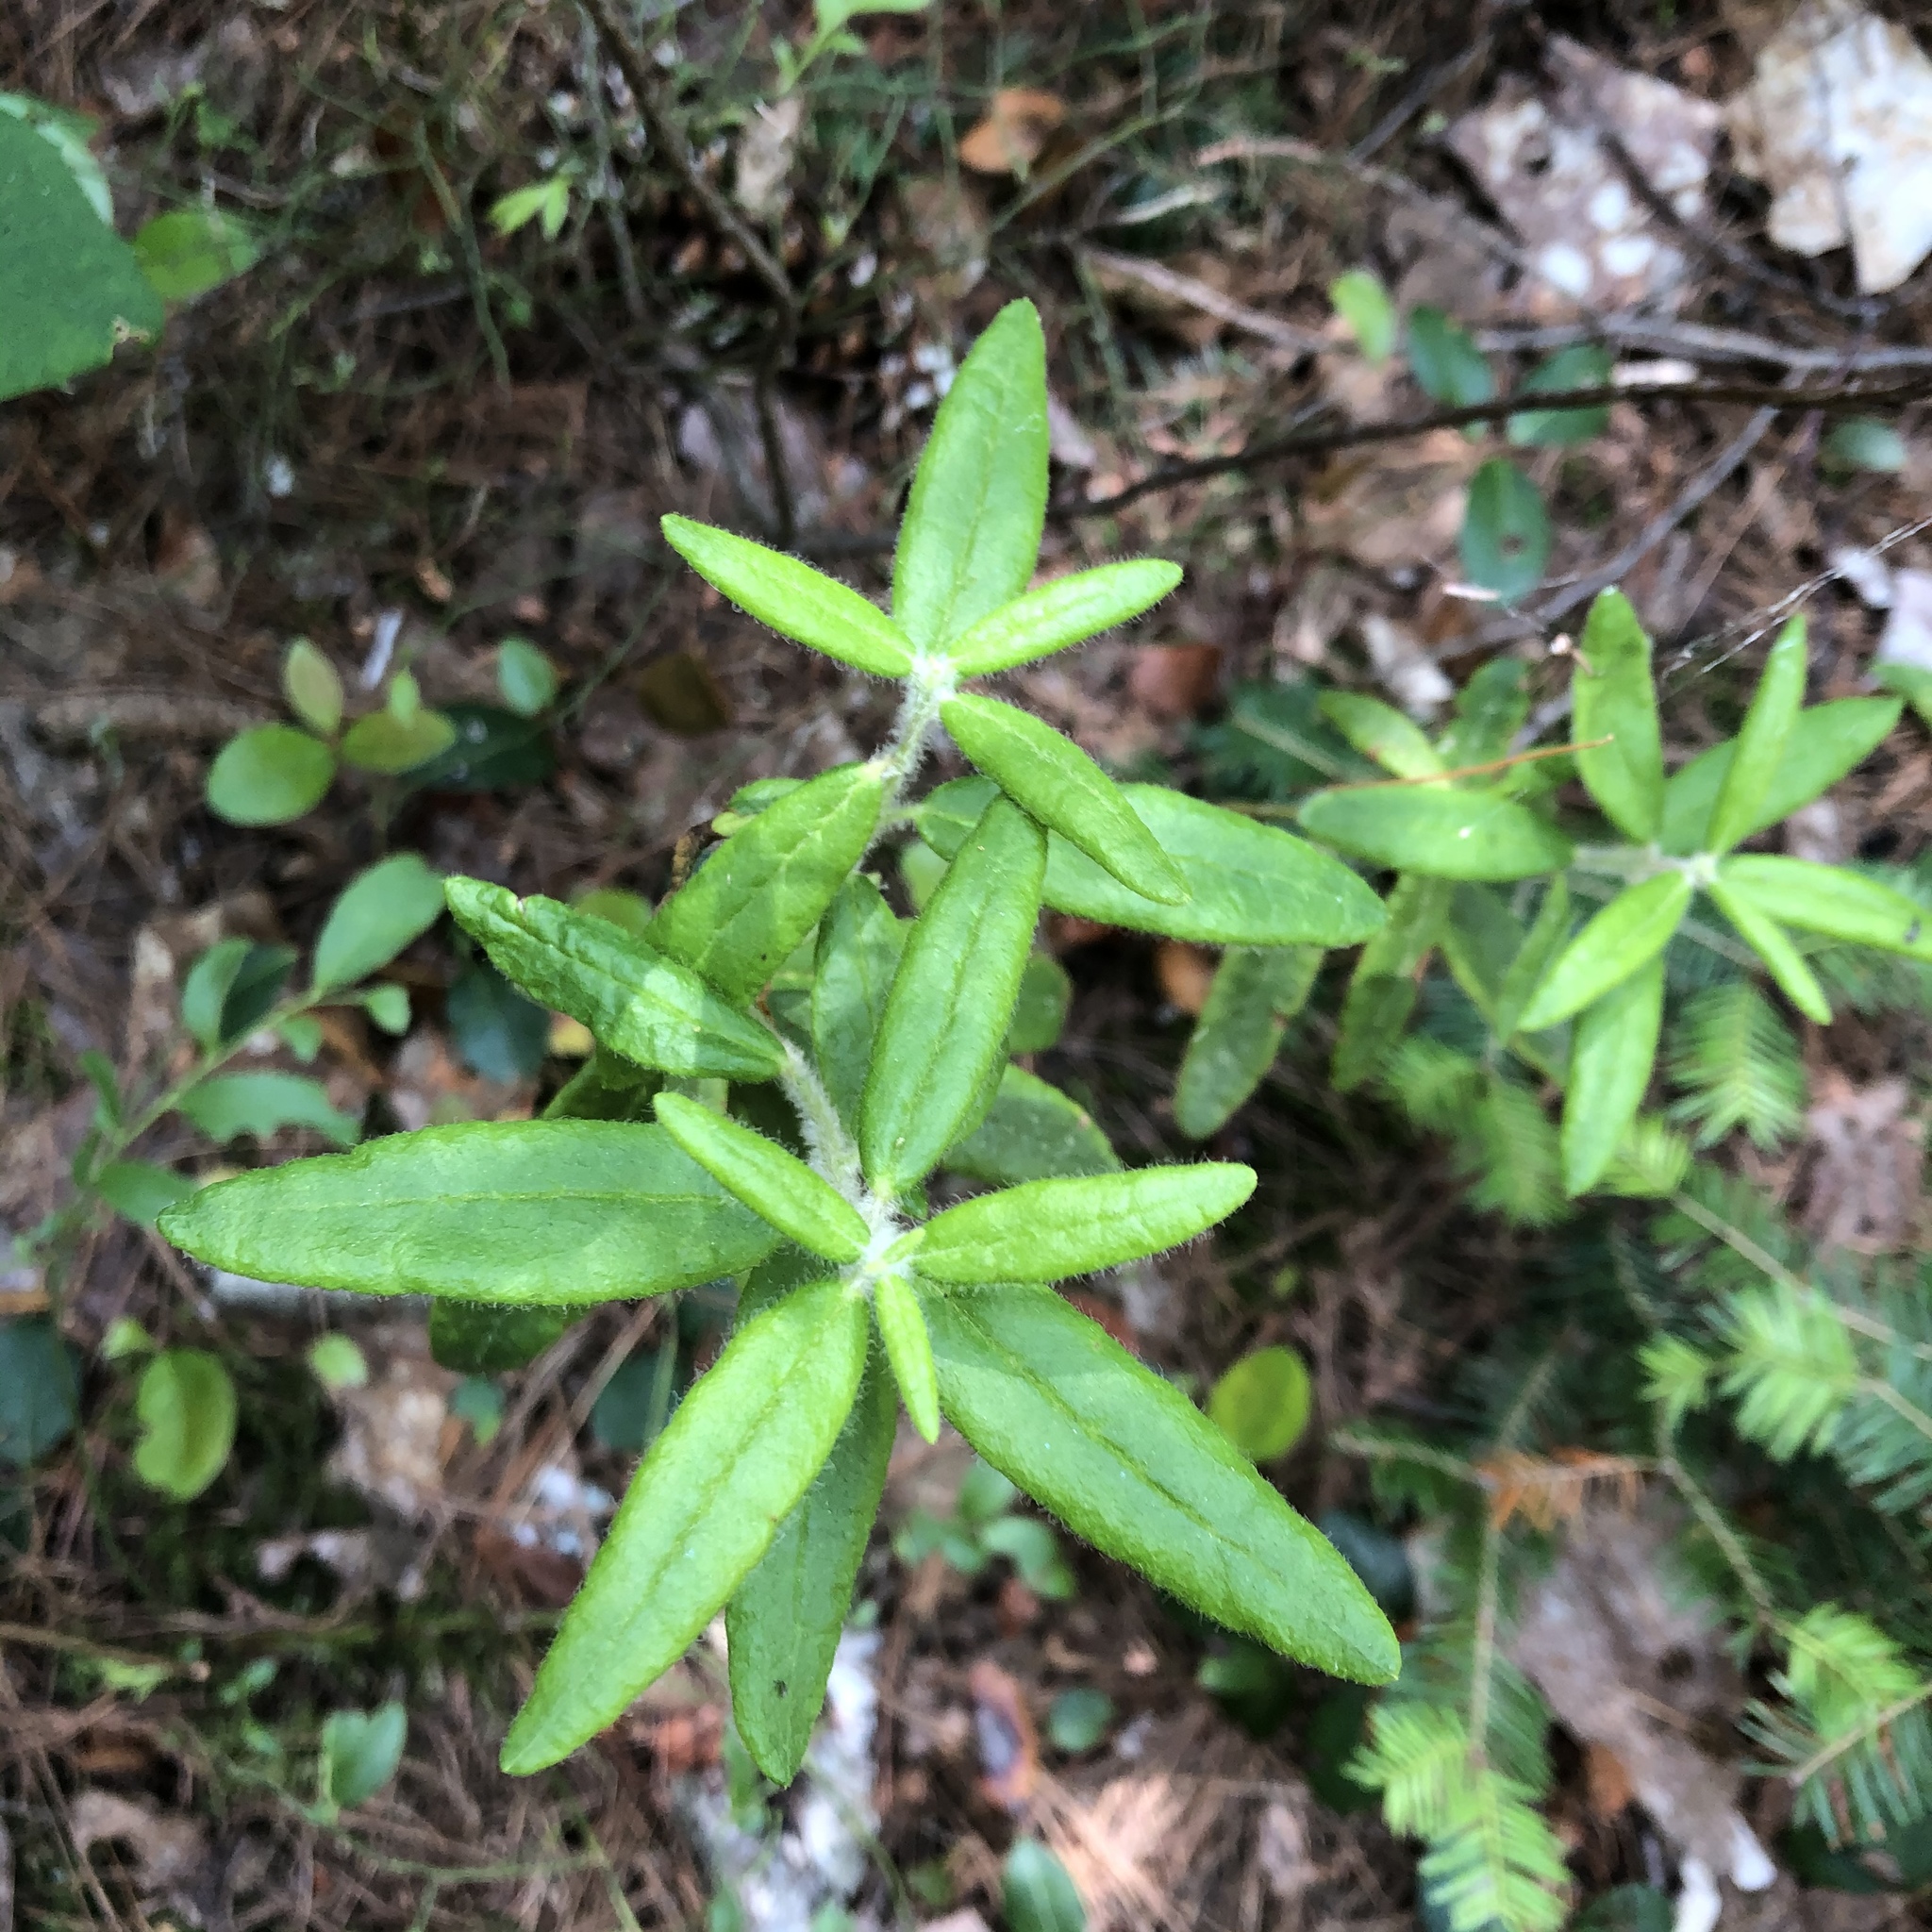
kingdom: Plantae
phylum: Tracheophyta
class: Magnoliopsida
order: Ericales
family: Ericaceae
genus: Rhododendron
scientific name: Rhododendron groenlandicum
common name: Bog labrador tea
